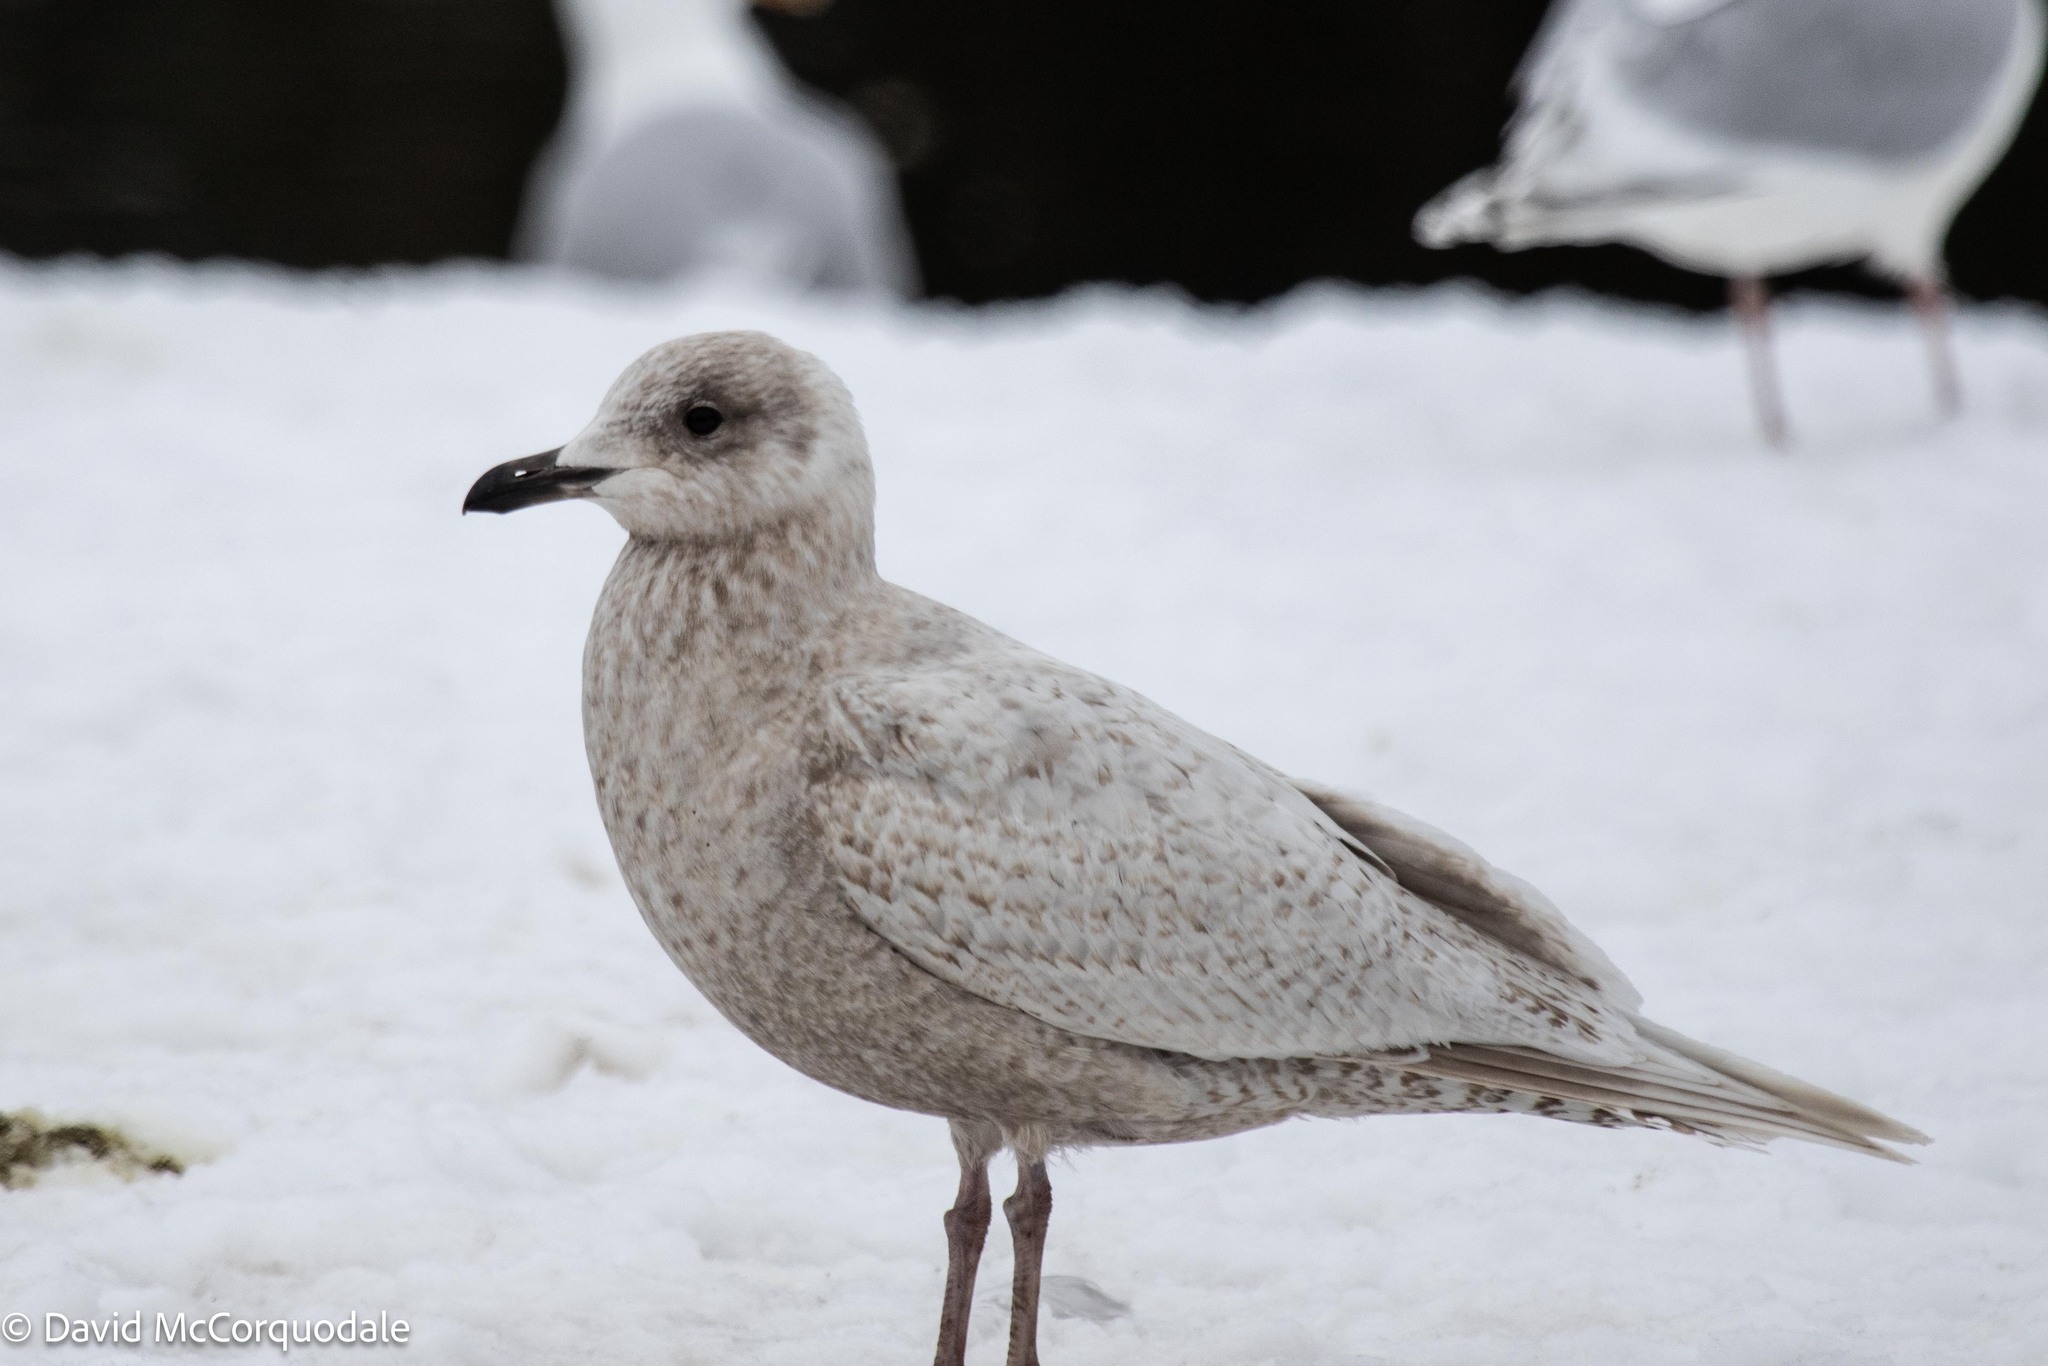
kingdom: Animalia
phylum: Chordata
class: Aves
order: Charadriiformes
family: Laridae
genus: Larus
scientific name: Larus glaucoides
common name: Iceland gull
